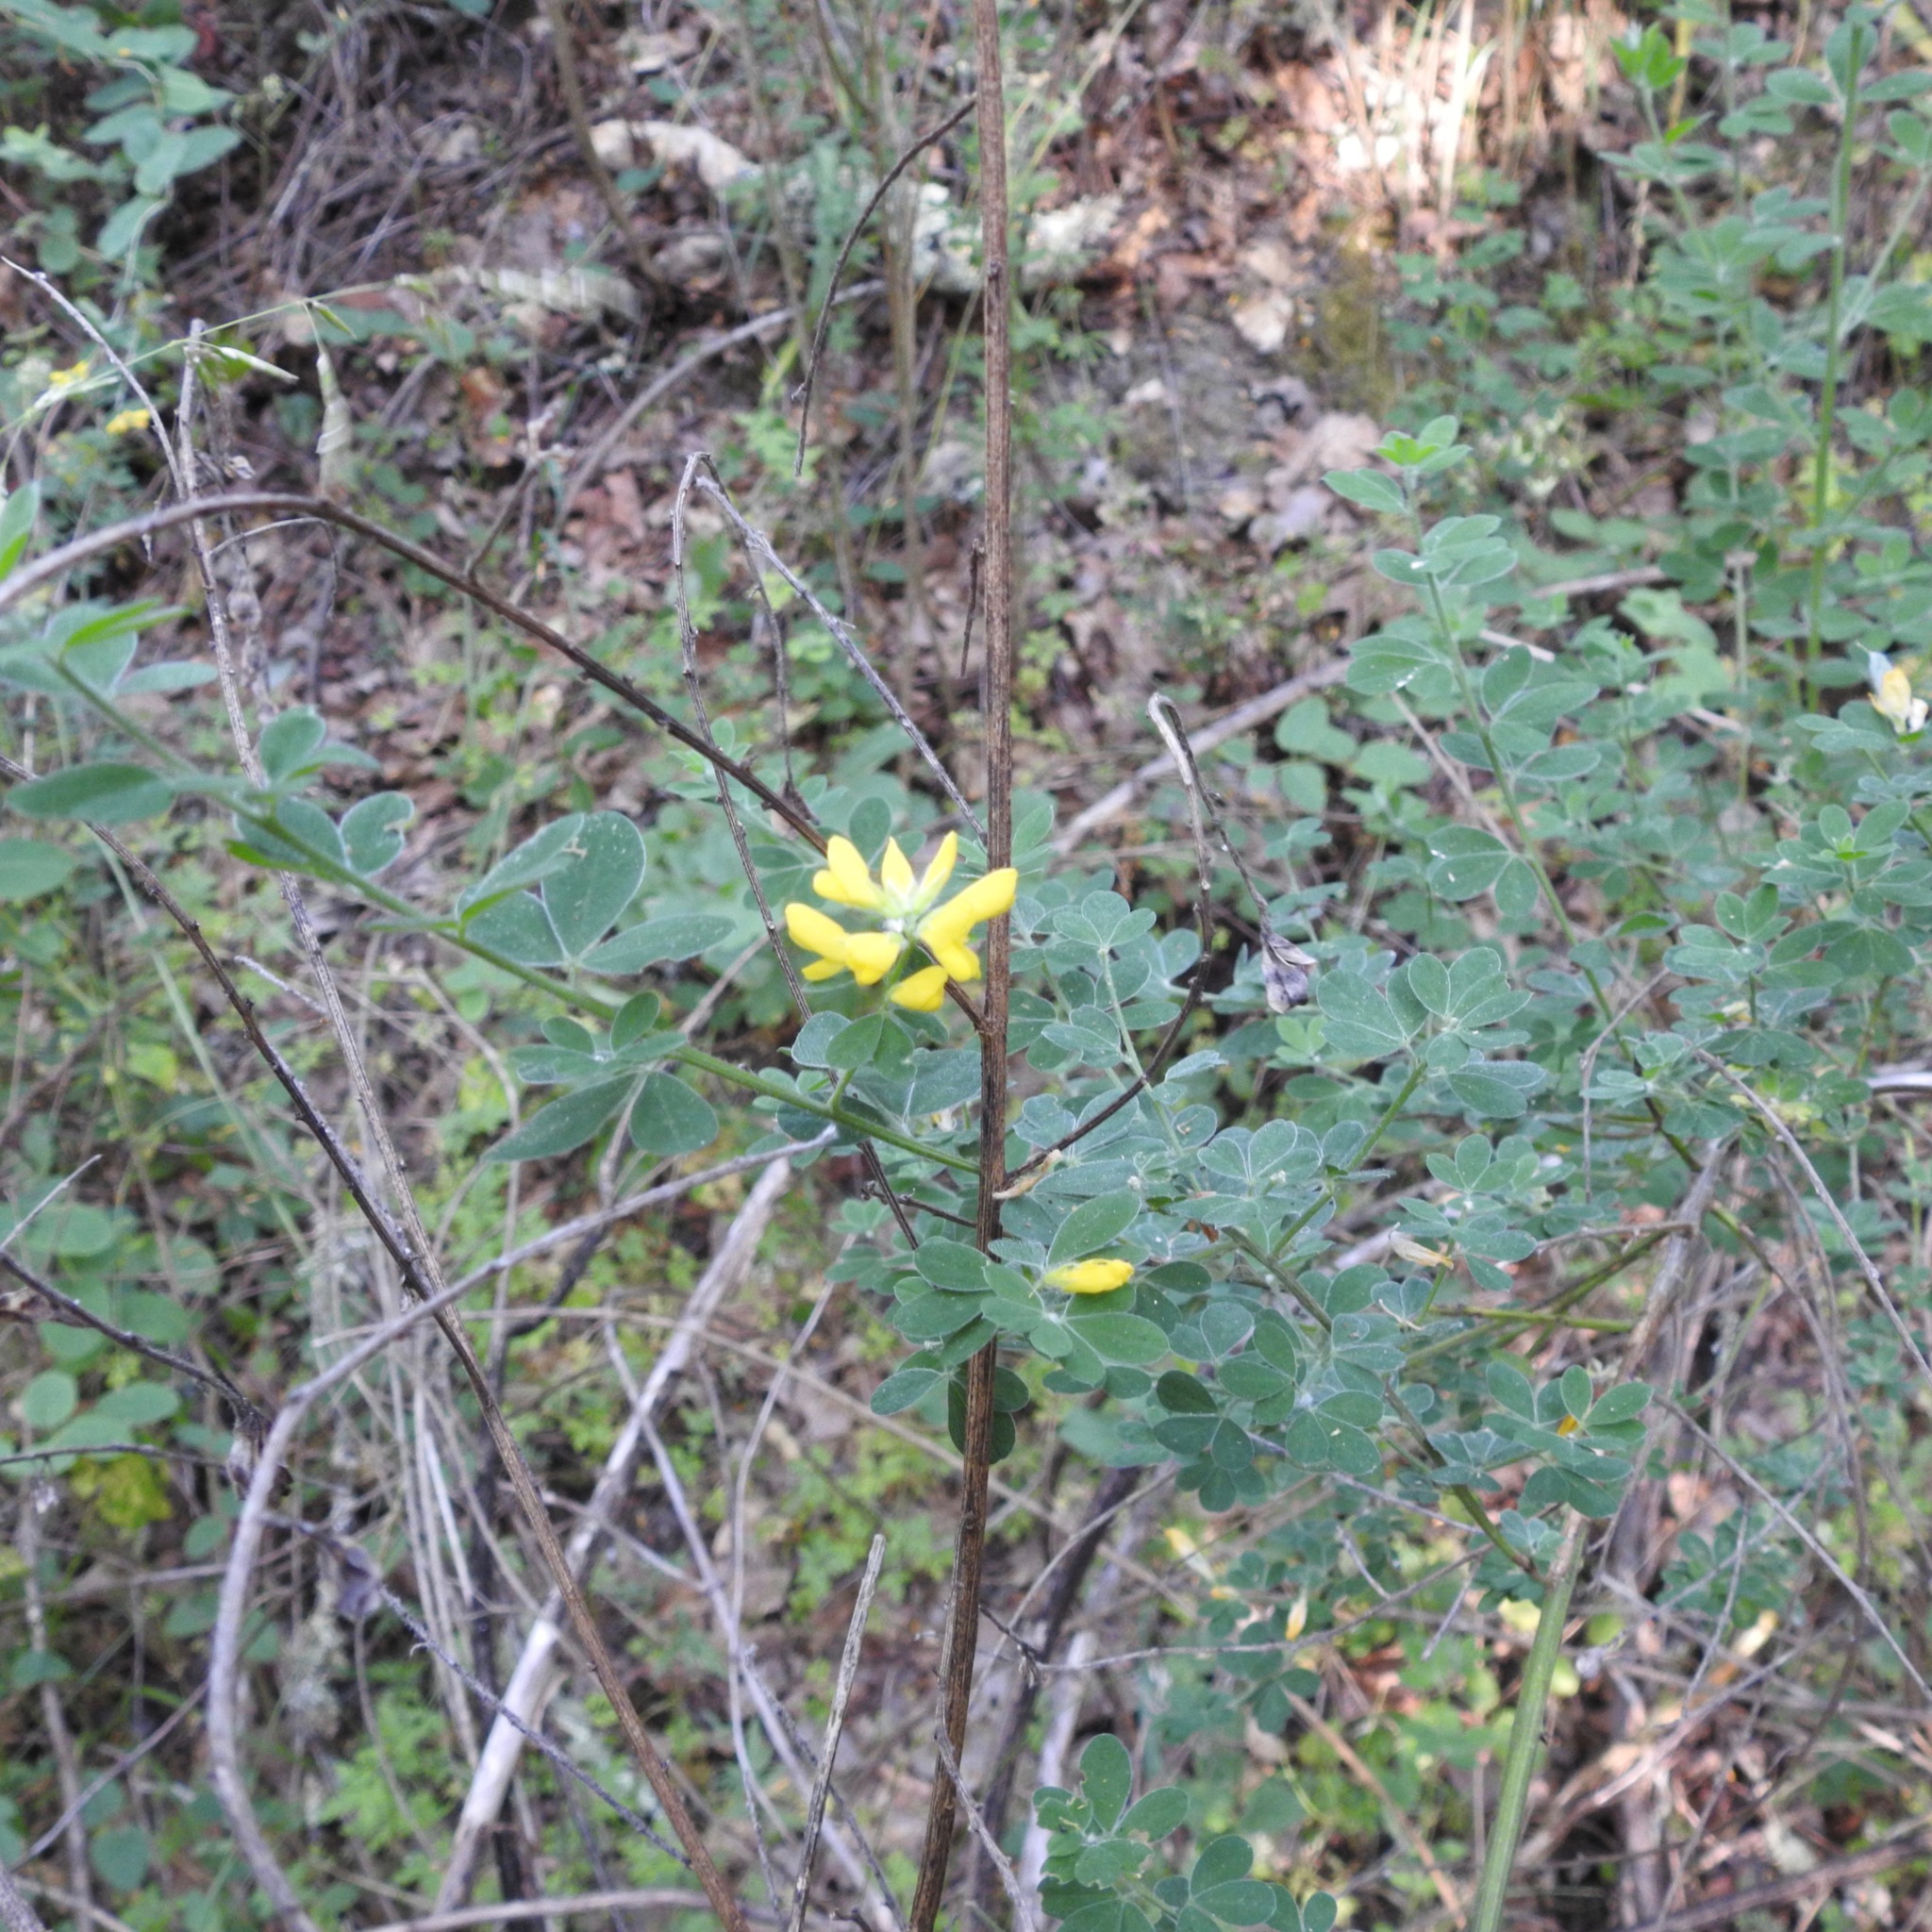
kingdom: Plantae
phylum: Tracheophyta
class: Magnoliopsida
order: Fabales
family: Fabaceae
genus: Genista
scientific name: Genista monspessulana
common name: Montpellier broom
